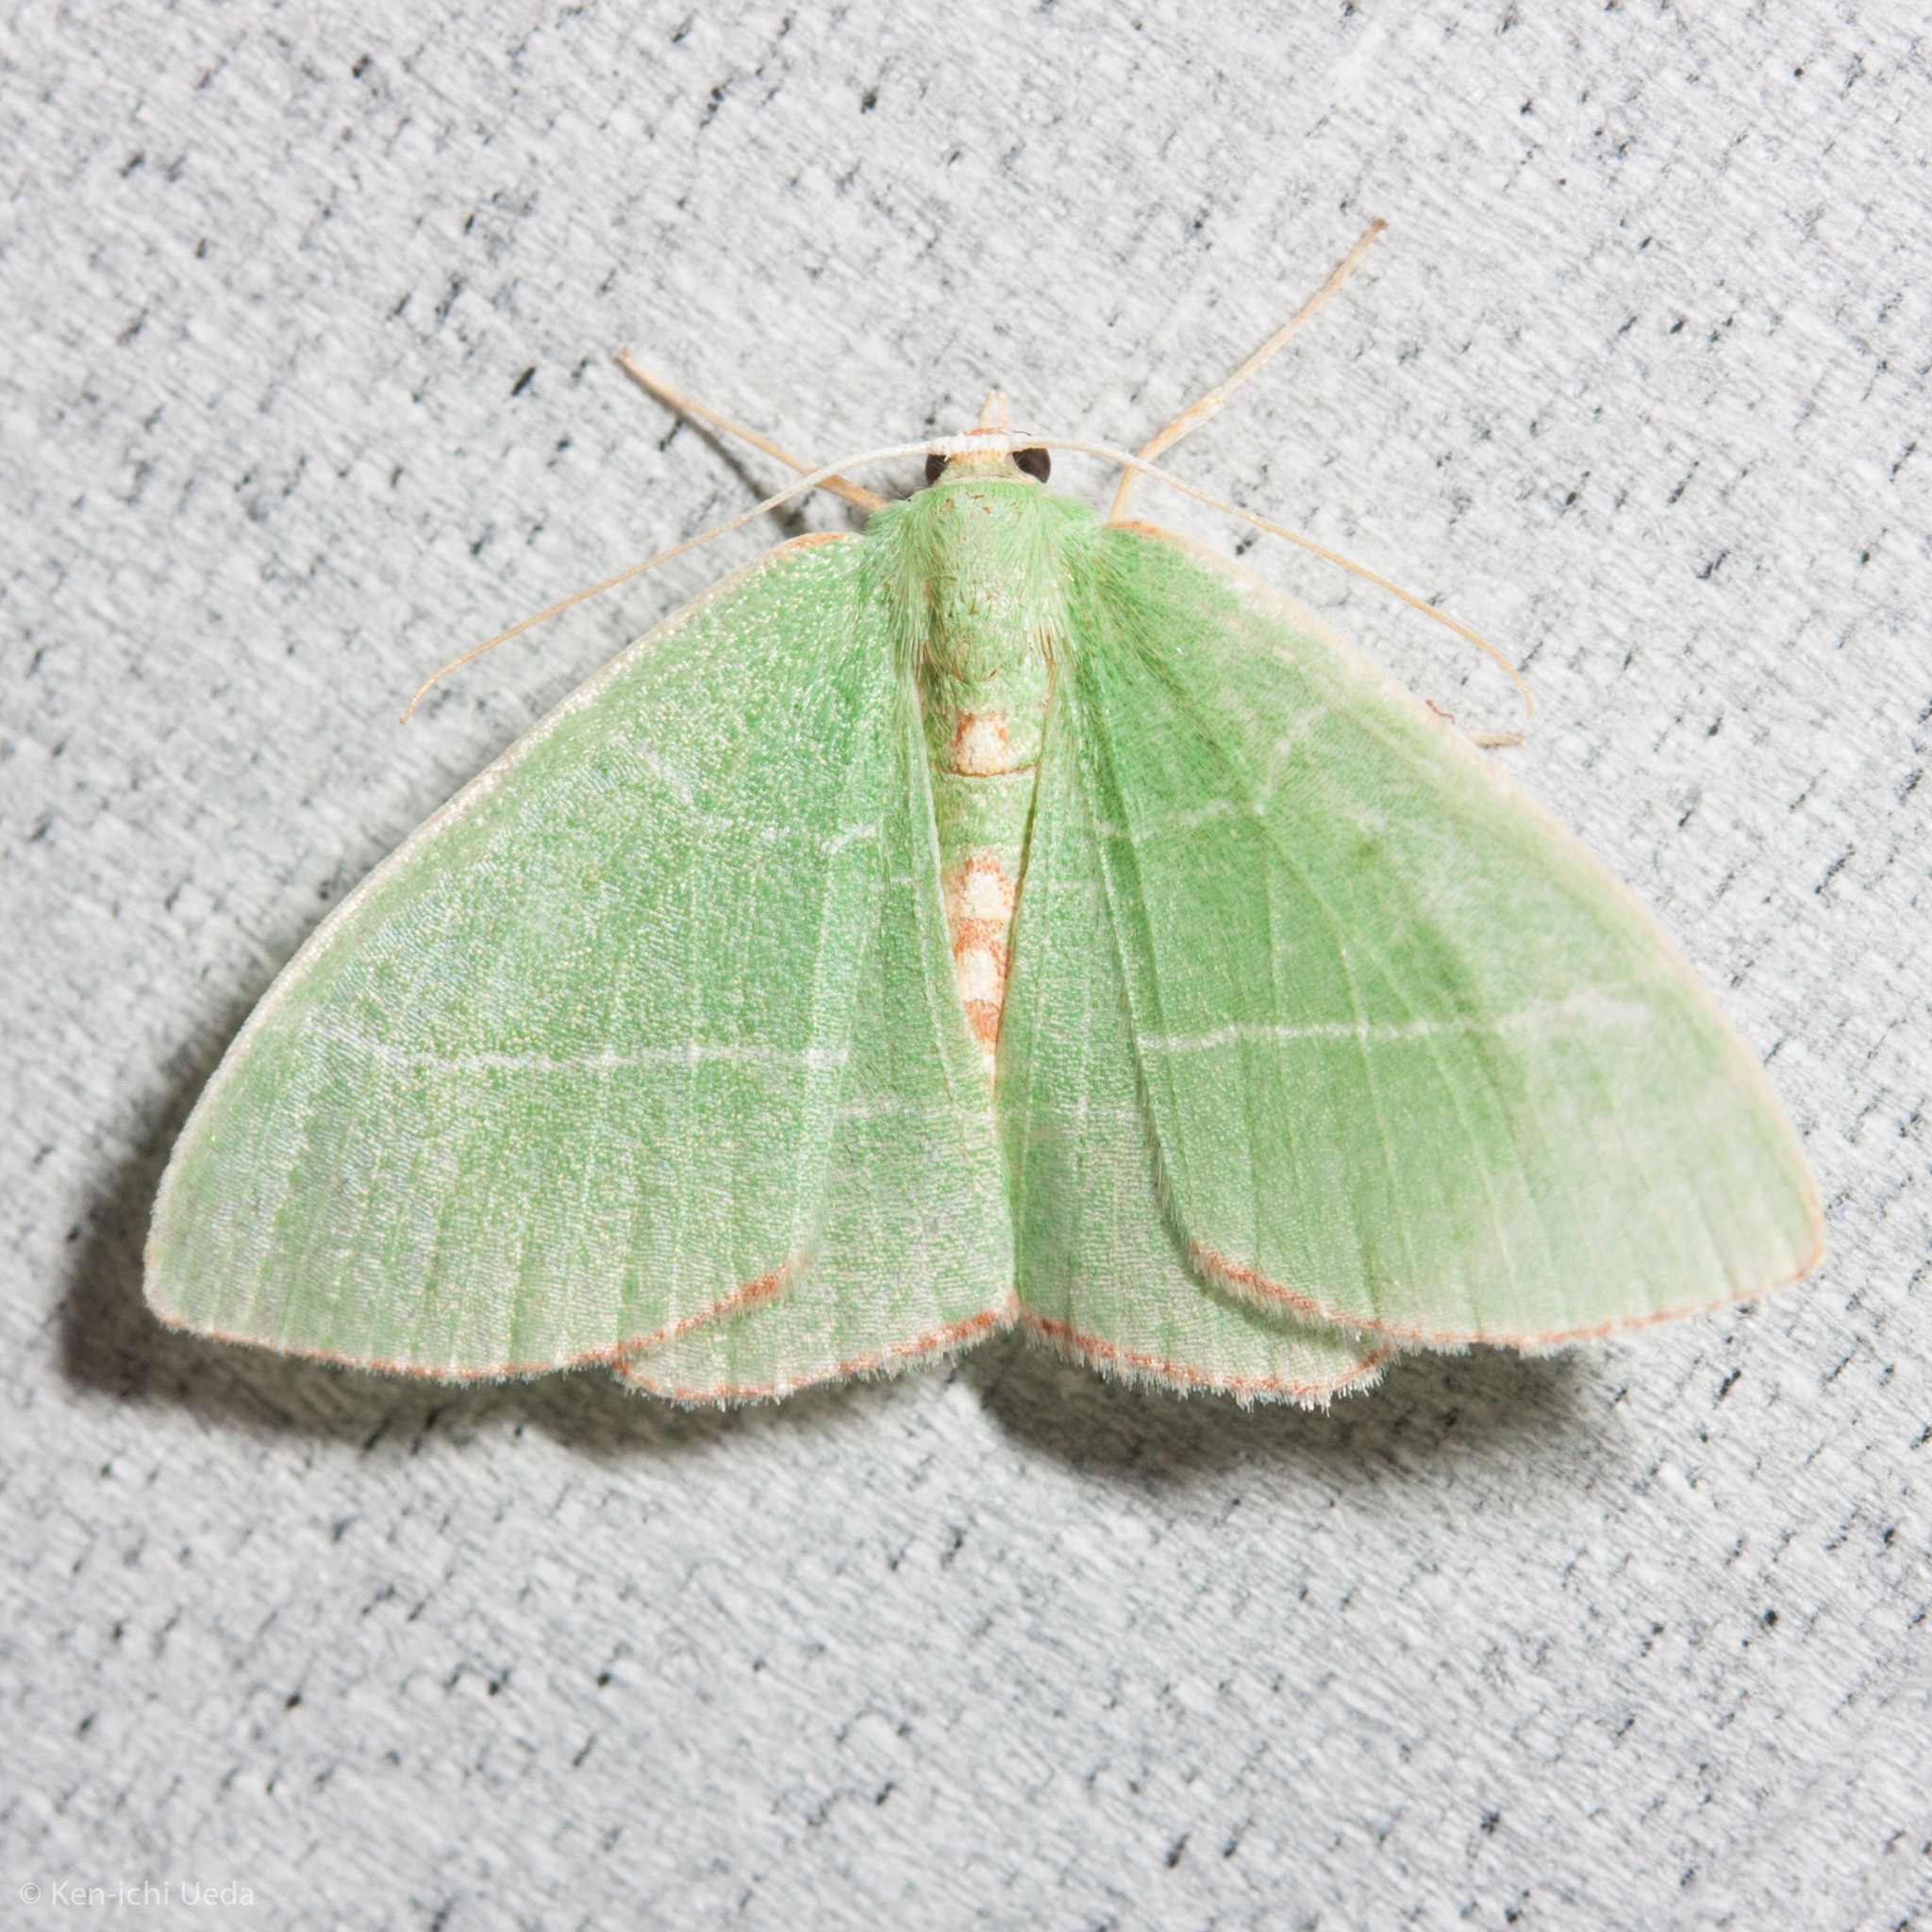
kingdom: Animalia
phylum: Arthropoda
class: Insecta
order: Lepidoptera
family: Geometridae
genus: Nemoria
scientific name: Nemoria bistriaria
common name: Red-fringed emerald
